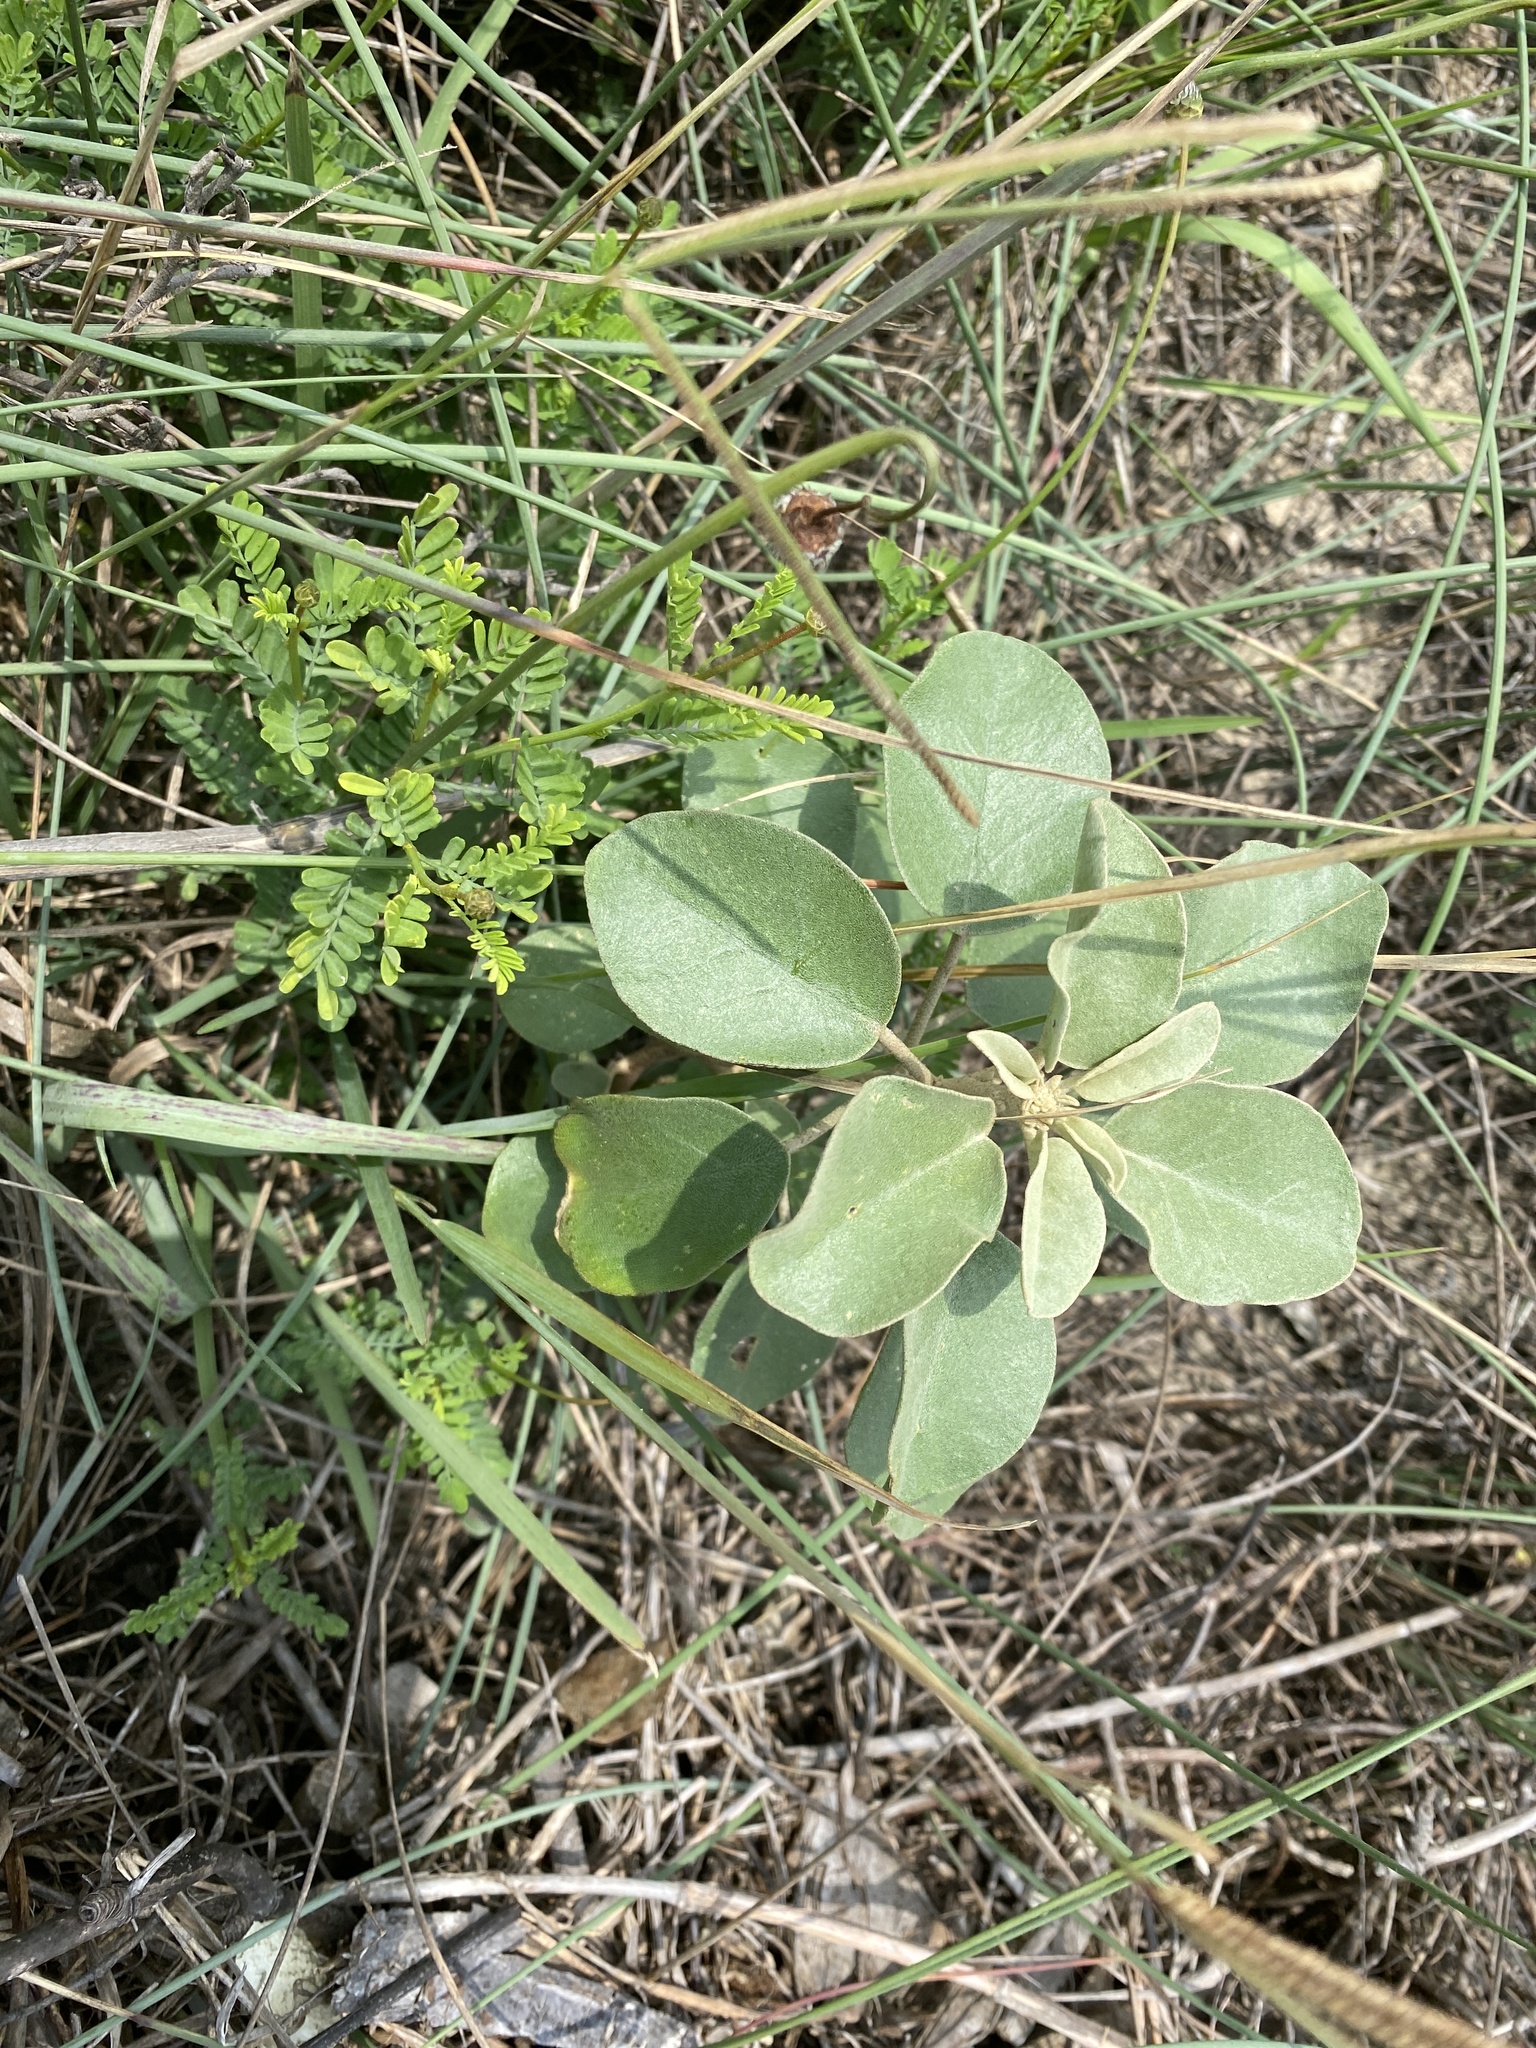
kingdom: Plantae
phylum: Tracheophyta
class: Magnoliopsida
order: Malpighiales
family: Euphorbiaceae
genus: Croton
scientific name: Croton punctatus
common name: Beach-tea
